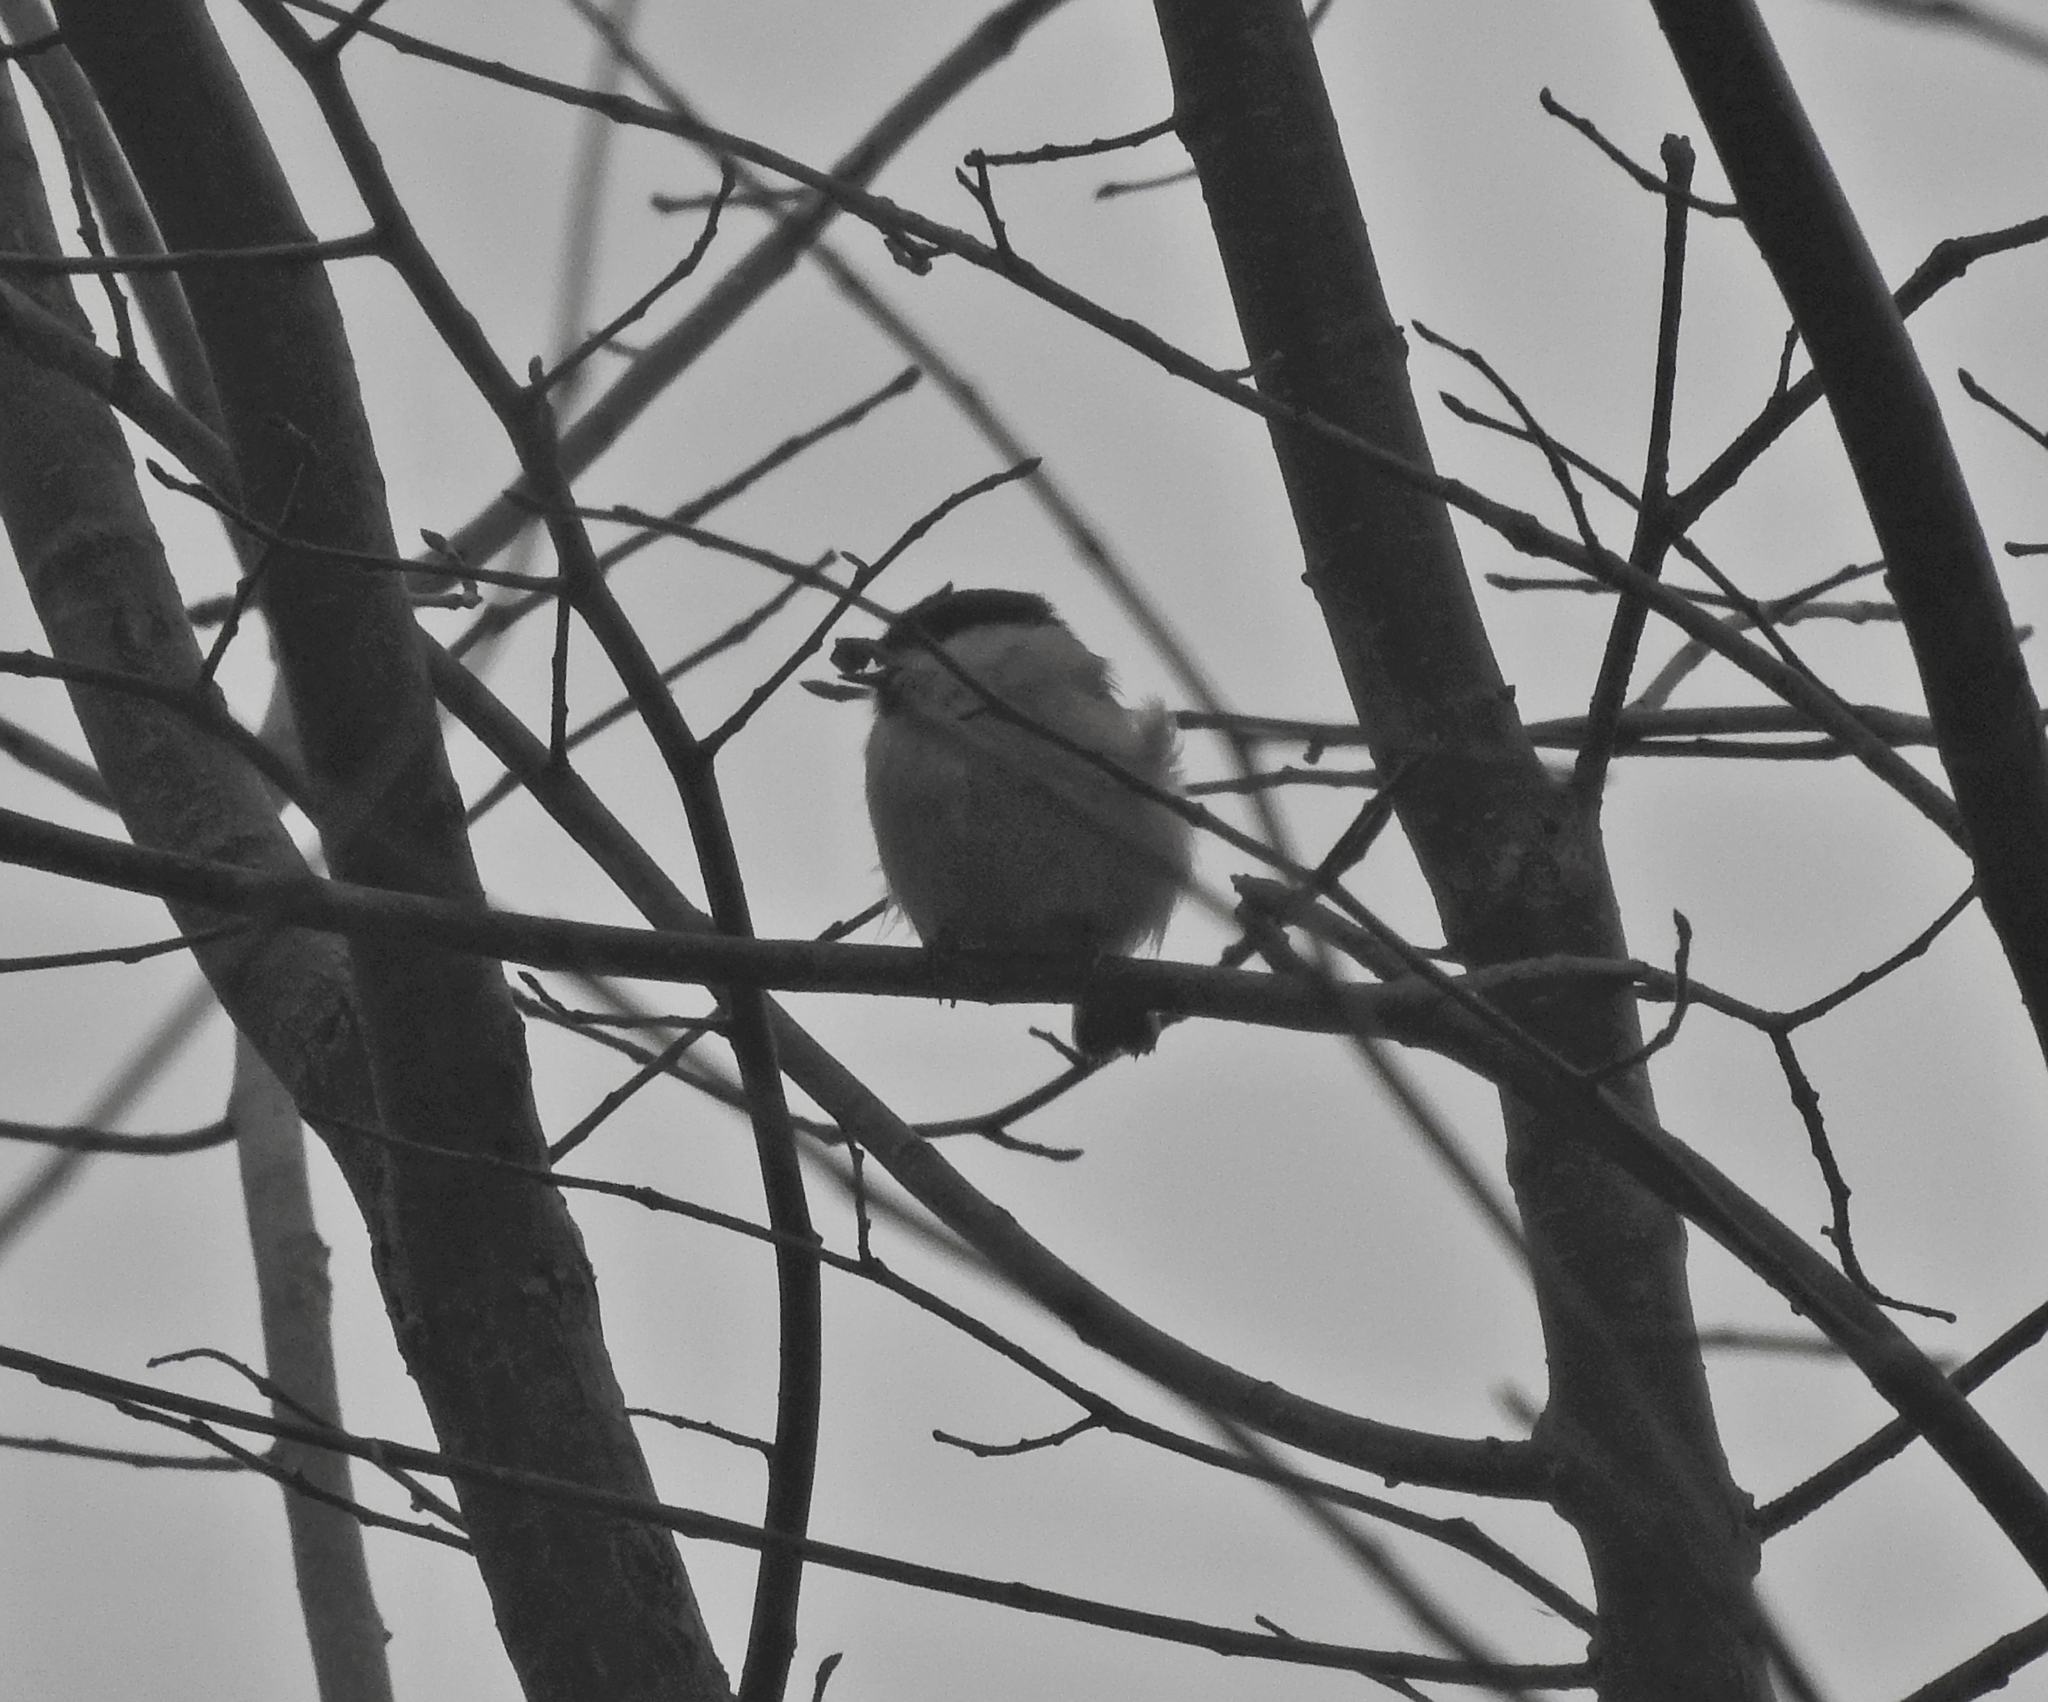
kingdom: Animalia
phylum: Chordata
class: Aves
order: Passeriformes
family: Paridae
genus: Poecile
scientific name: Poecile
